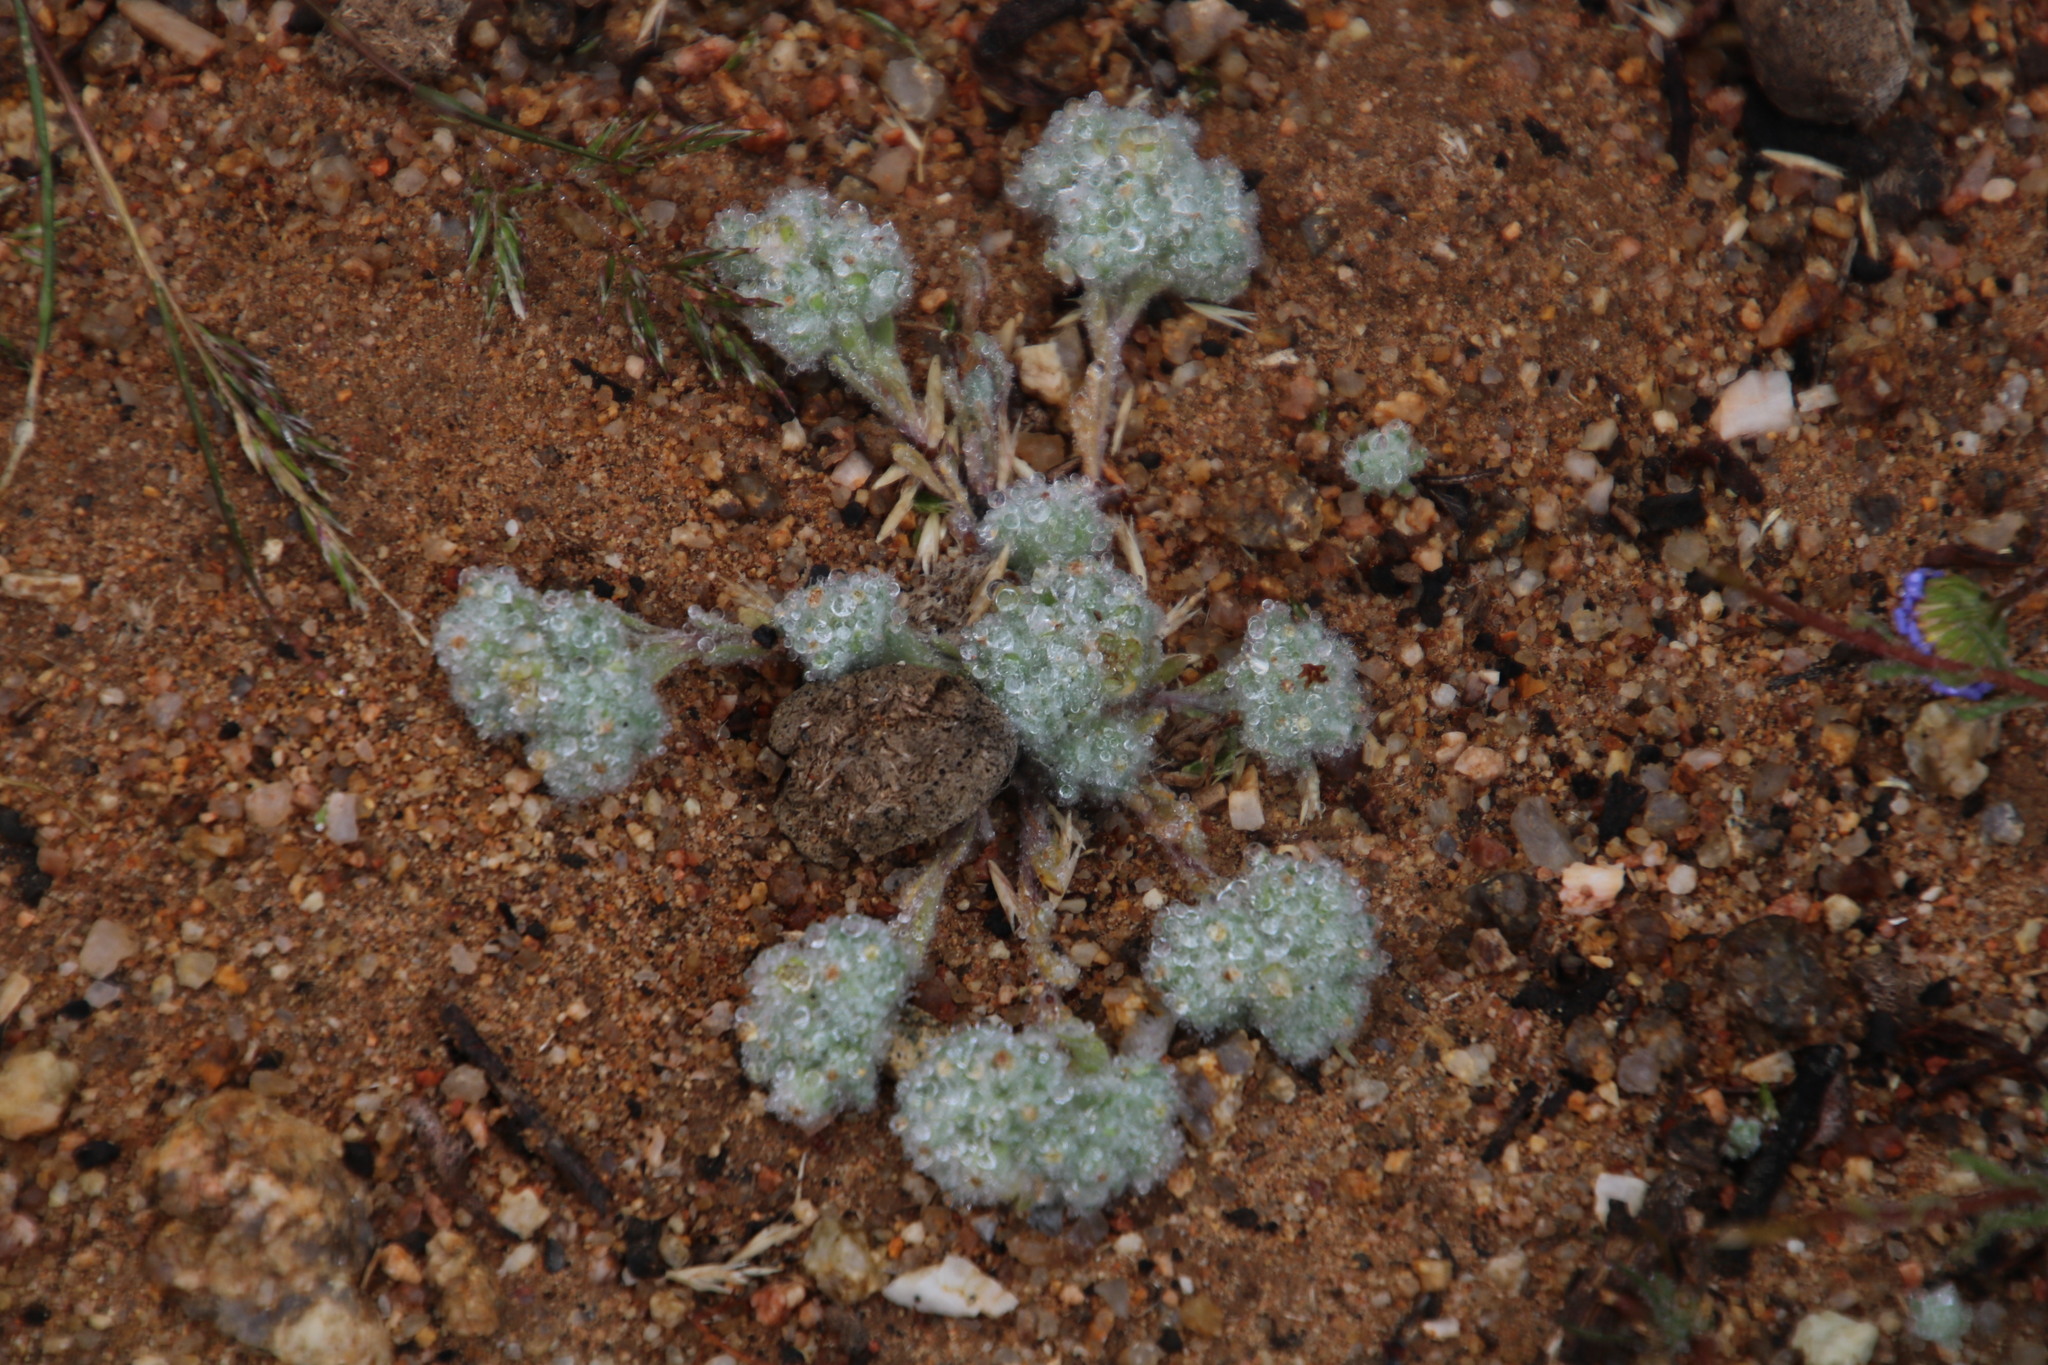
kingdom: Plantae
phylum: Tracheophyta
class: Magnoliopsida
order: Asterales
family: Asteraceae
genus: Ifloga
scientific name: Ifloga molluginoides
